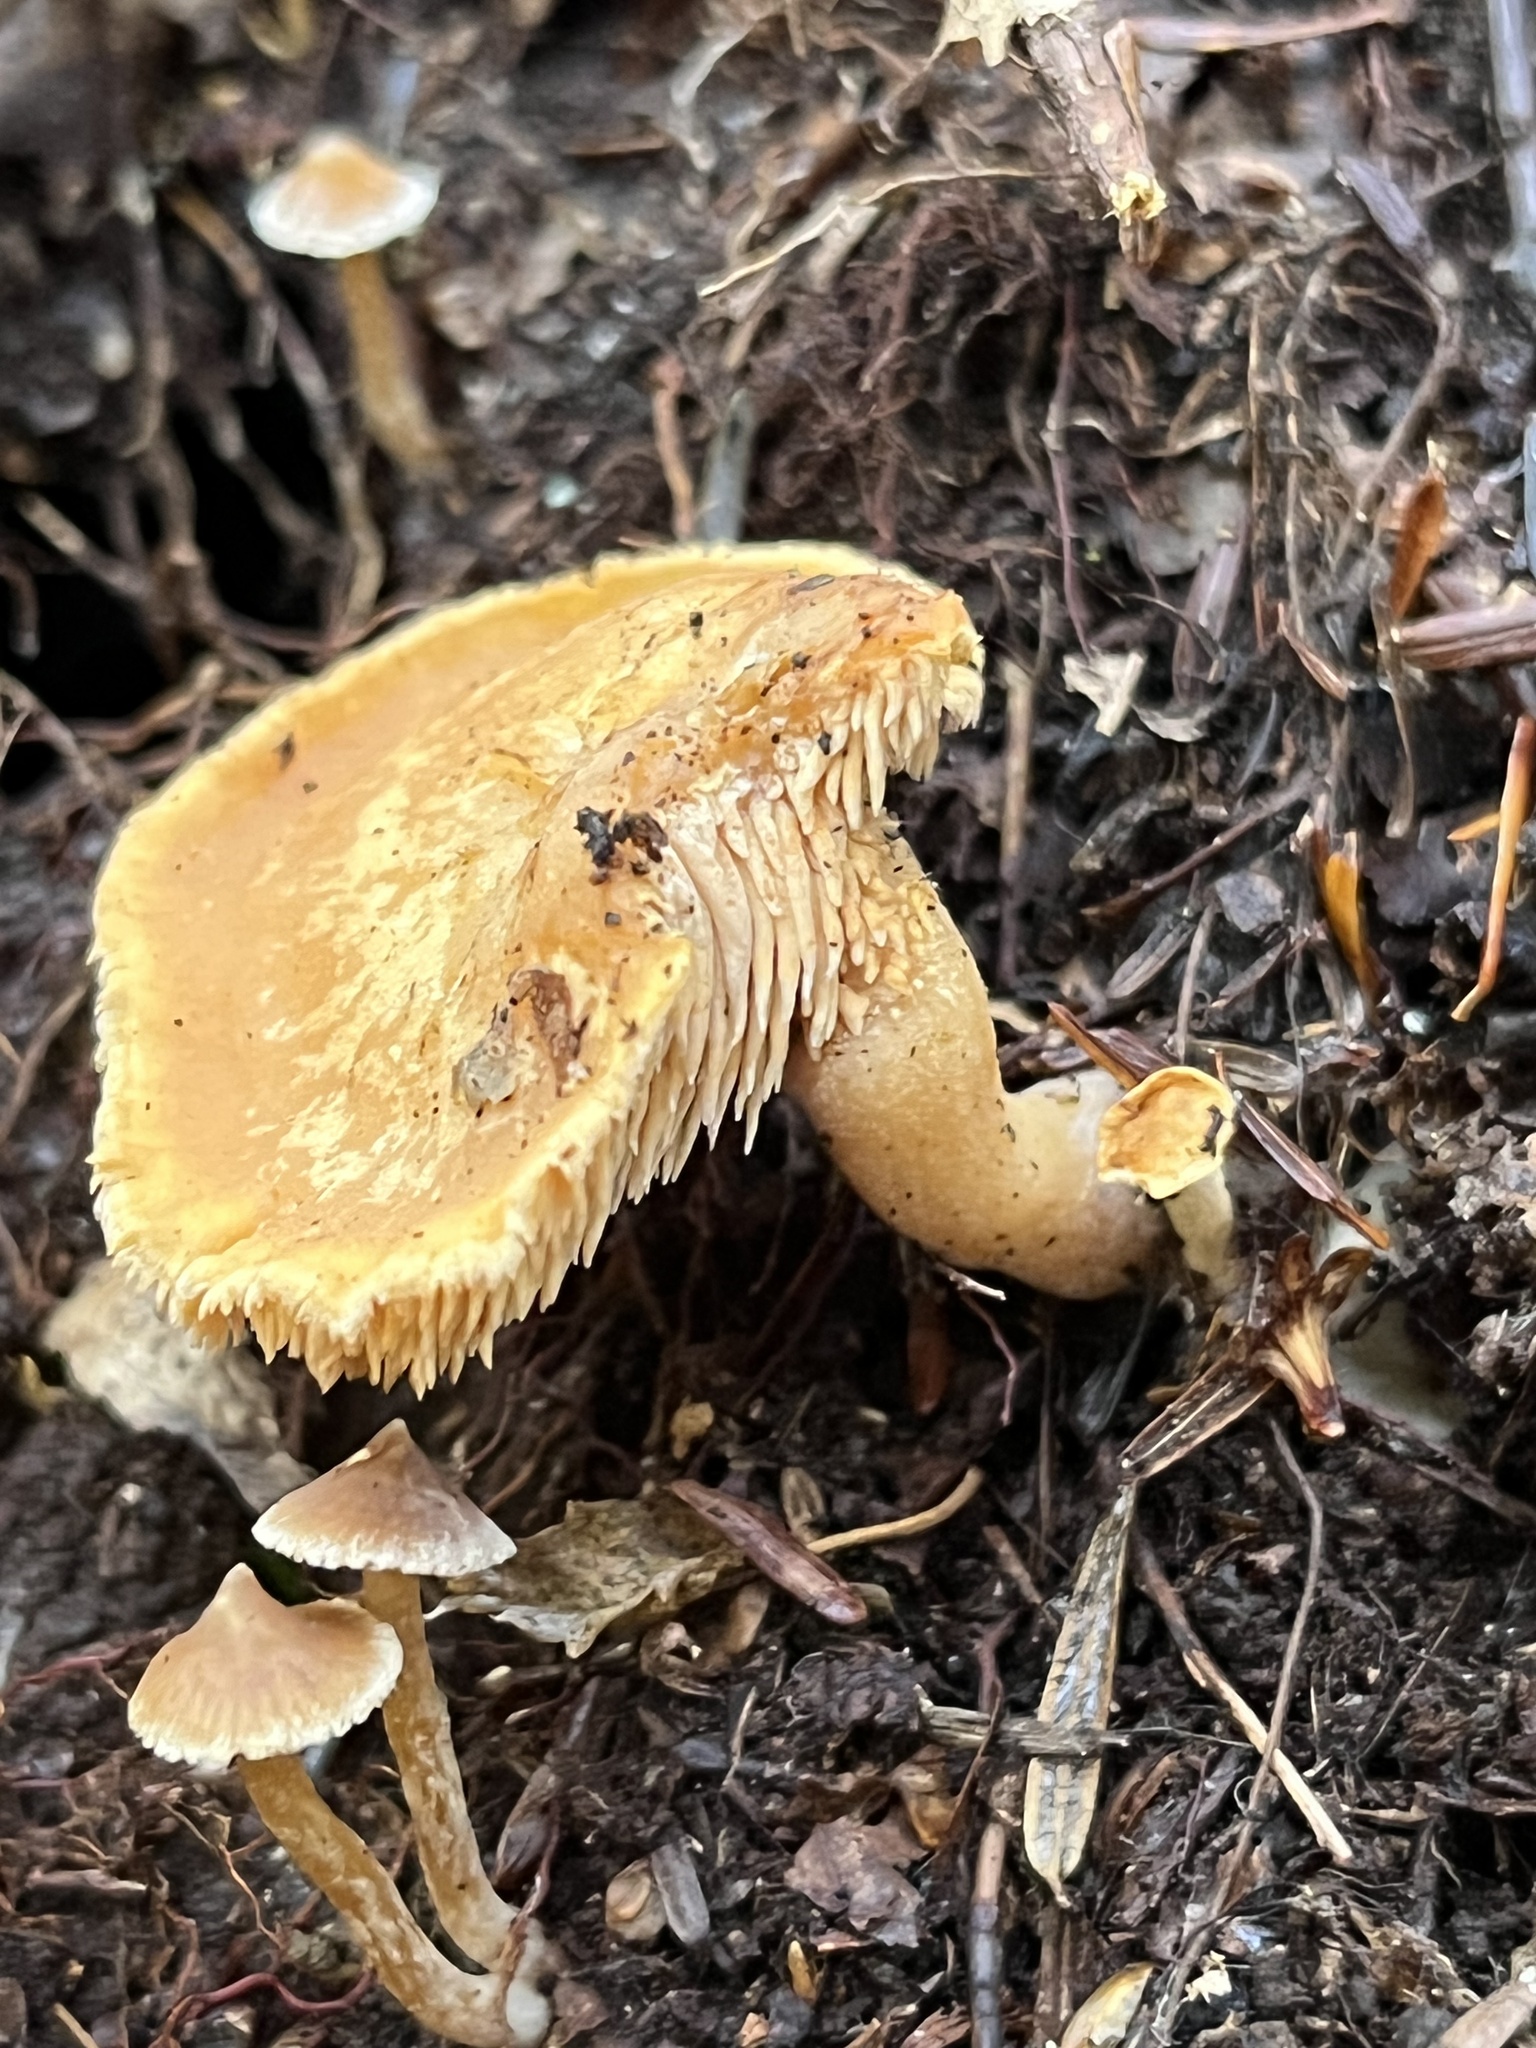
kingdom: Fungi
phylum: Basidiomycota
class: Agaricomycetes
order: Cantharellales
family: Hydnaceae
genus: Hydnum
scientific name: Hydnum umbilicatum
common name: Umbilicate hedgehog
